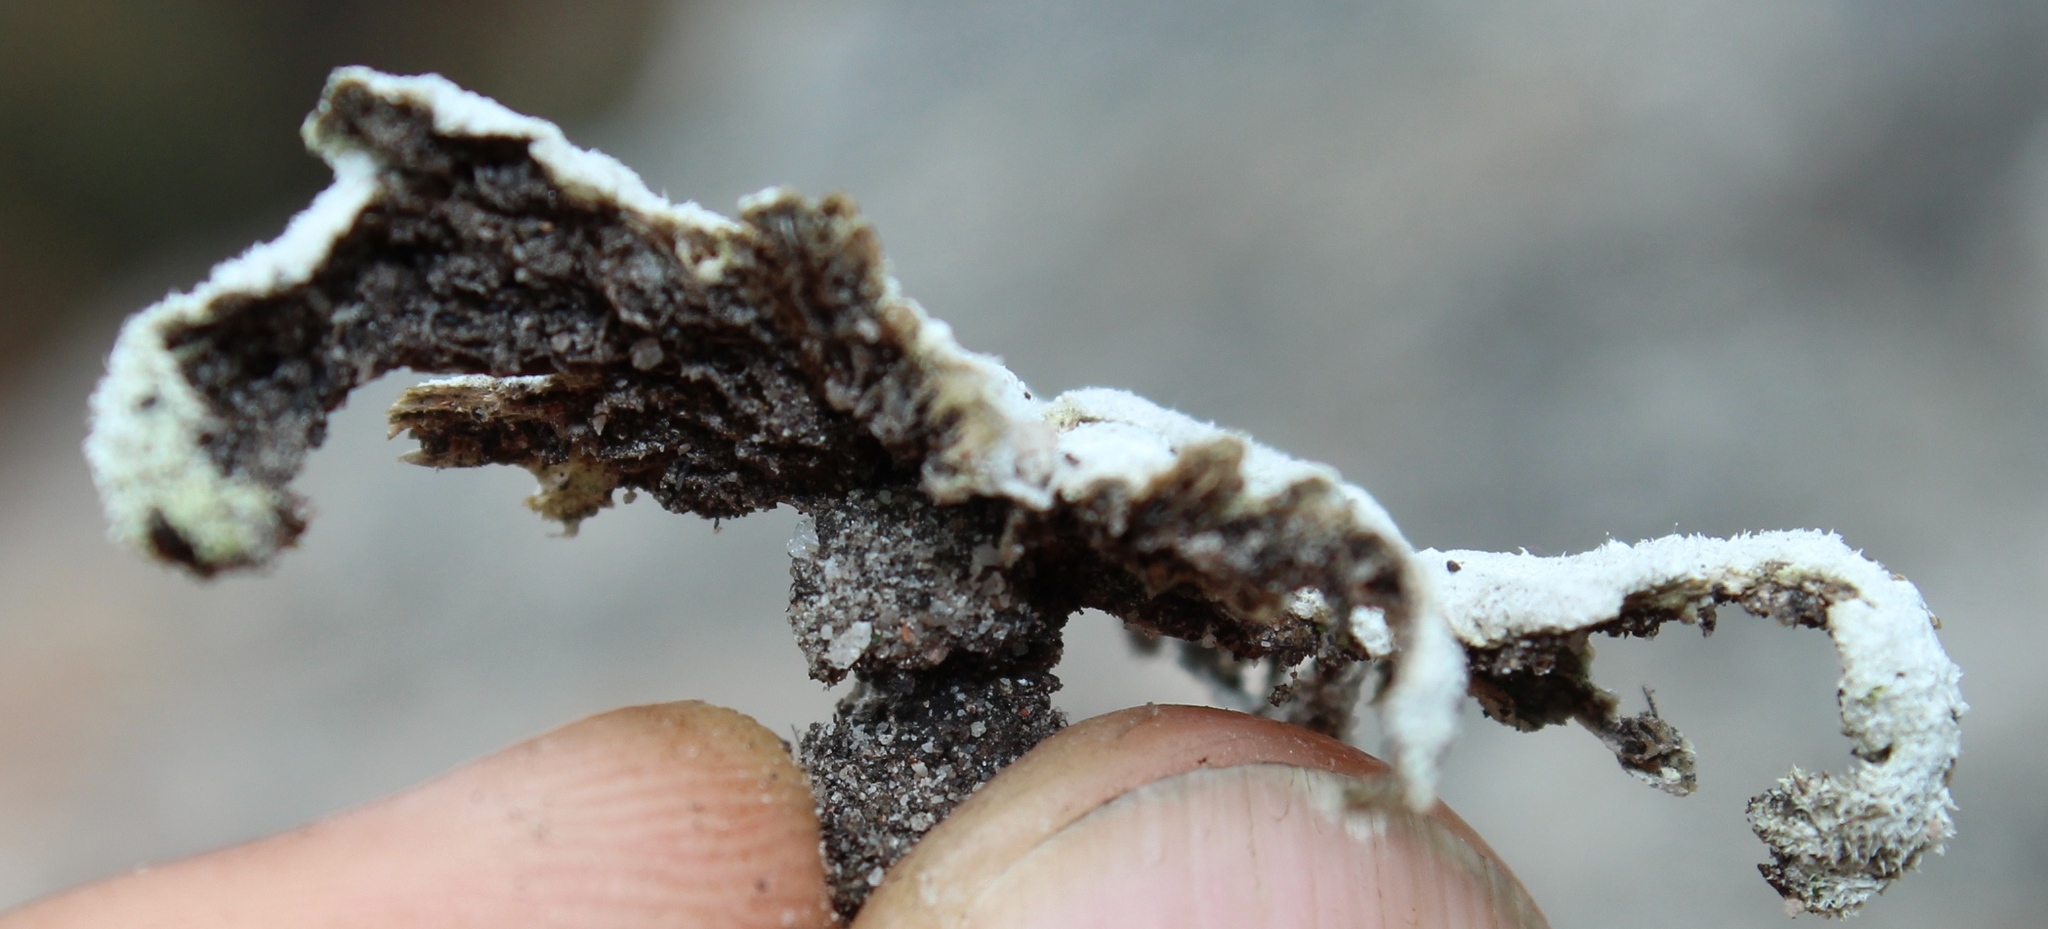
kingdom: Fungi
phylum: Basidiomycota
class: Agaricomycetes
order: Agaricales
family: Schizophyllaceae
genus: Schizophyllum
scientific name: Schizophyllum commune
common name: Common porecrust
